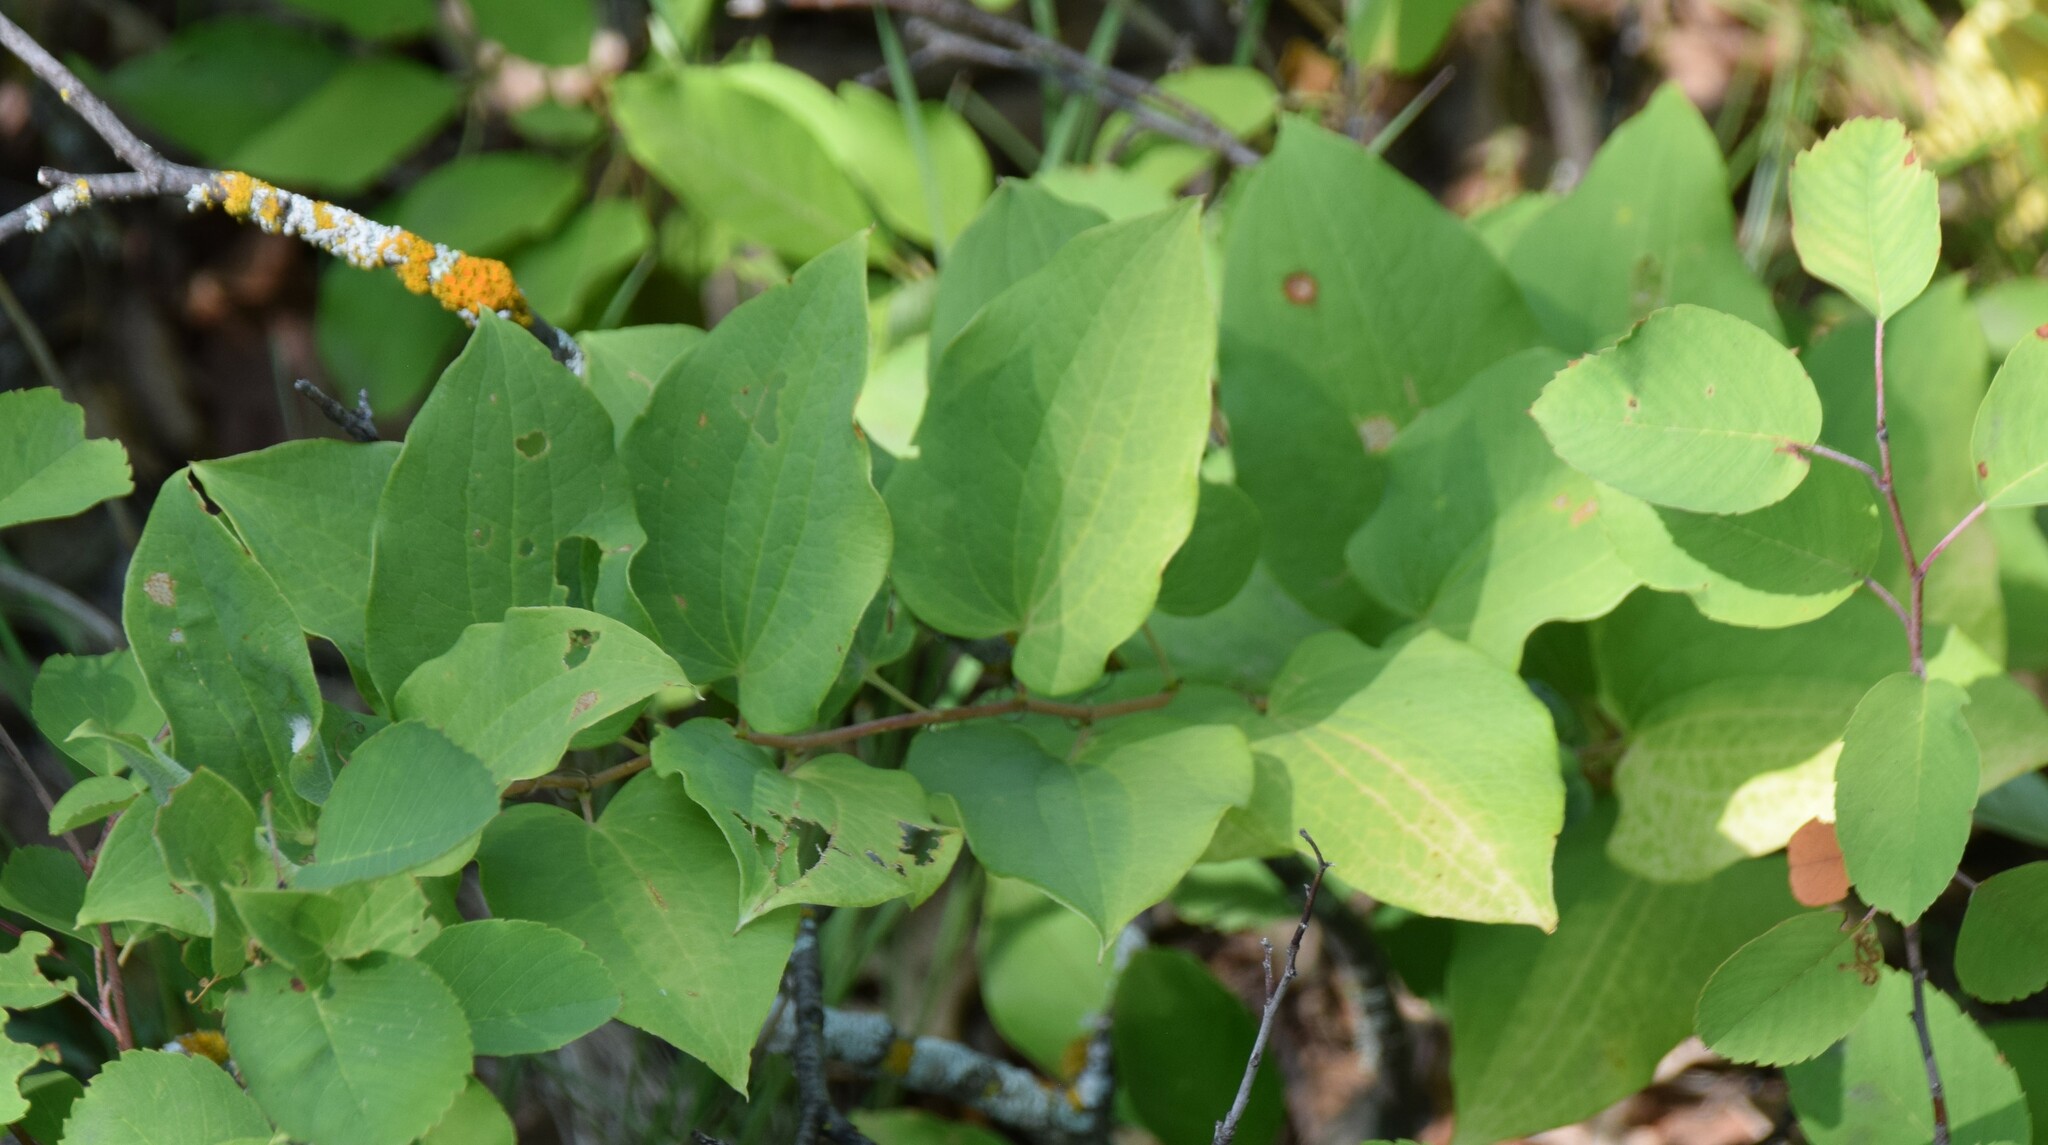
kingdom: Plantae
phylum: Tracheophyta
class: Liliopsida
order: Liliales
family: Smilacaceae
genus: Smilax
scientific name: Smilax lasioneura
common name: Blue ridge carrionflower
